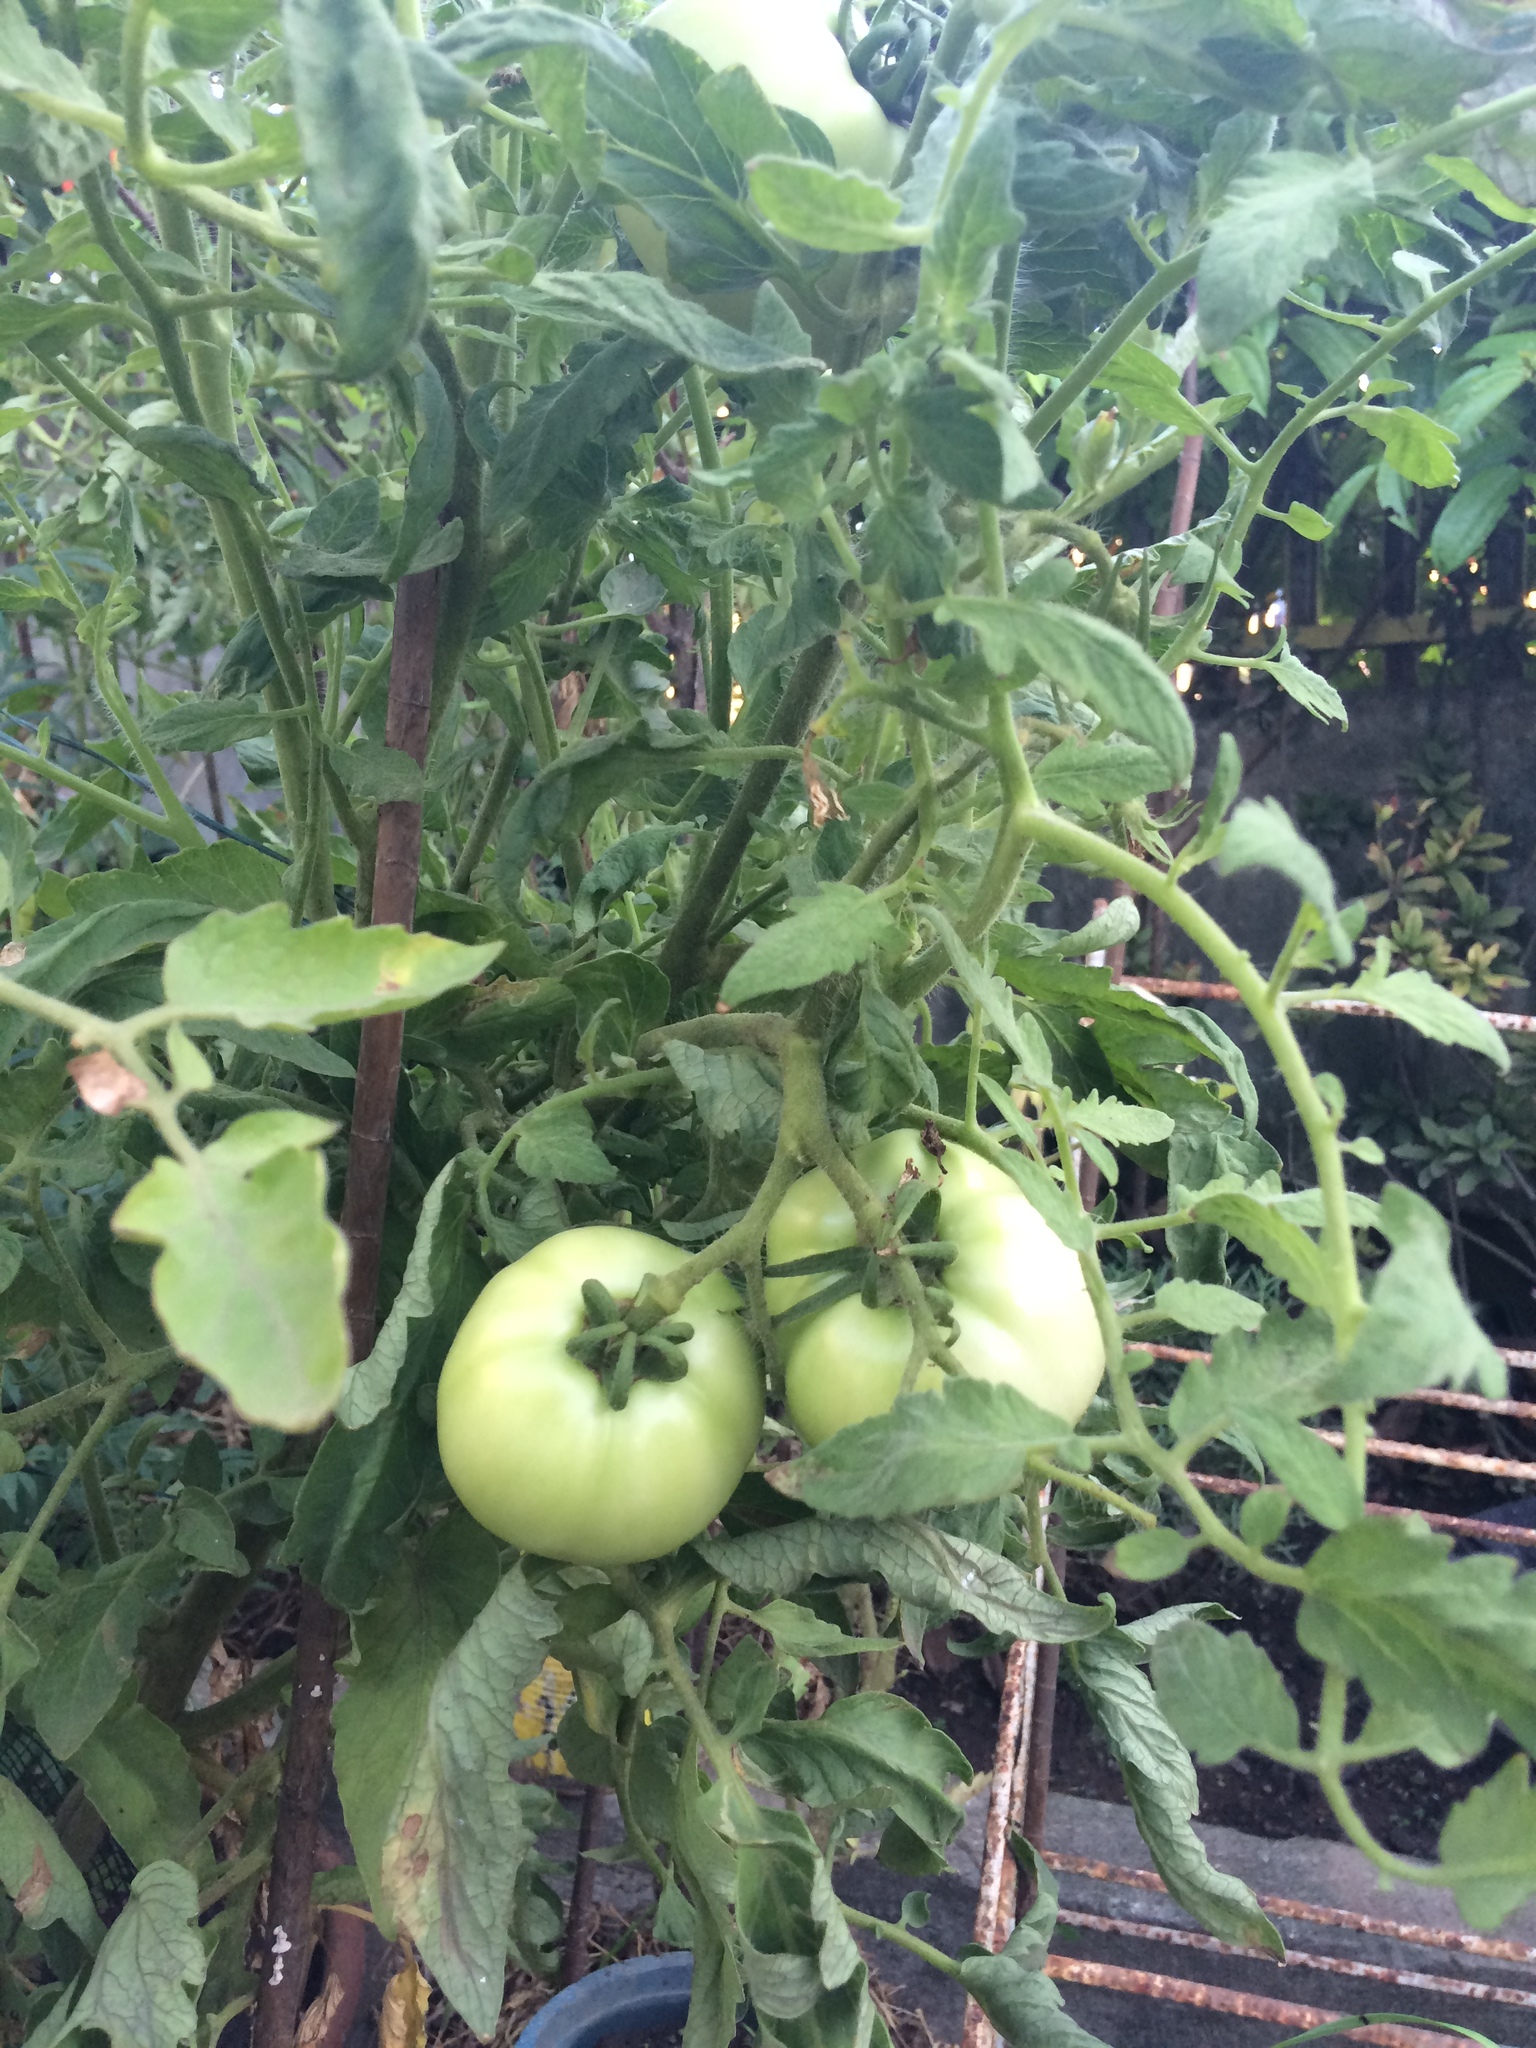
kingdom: Plantae
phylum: Tracheophyta
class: Magnoliopsida
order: Solanales
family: Solanaceae
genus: Solanum
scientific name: Solanum lycopersicum
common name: Garden tomato
